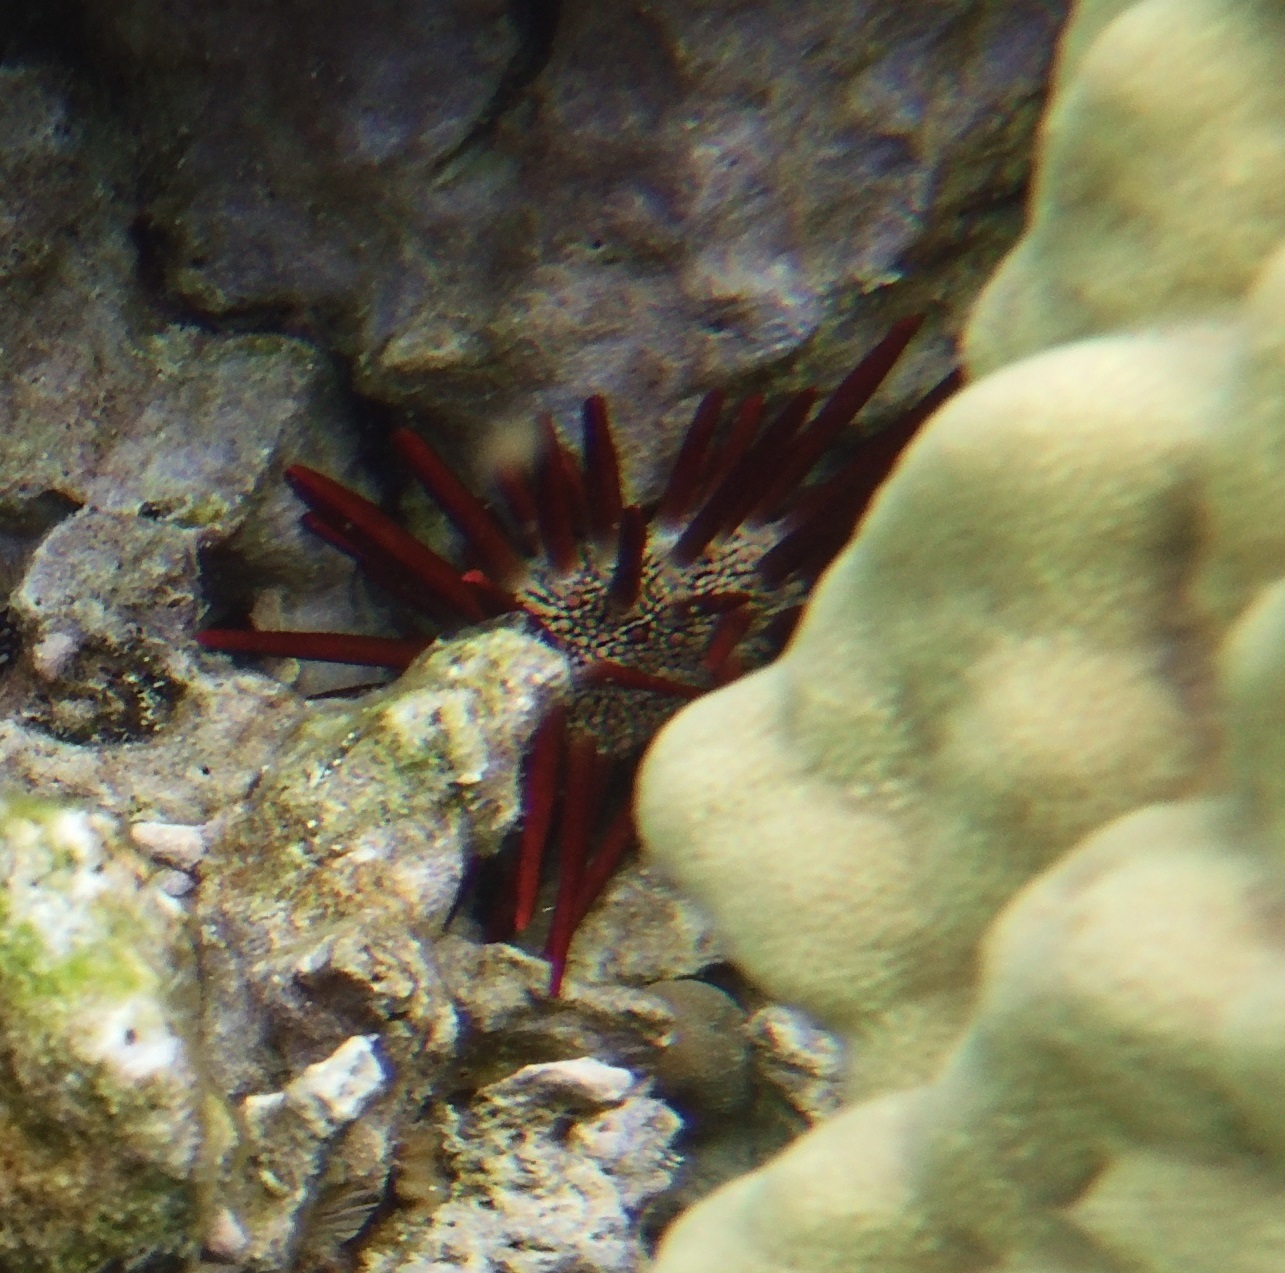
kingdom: Animalia
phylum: Echinodermata
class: Echinoidea
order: Camarodonta
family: Echinometridae
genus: Heterocentrotus
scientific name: Heterocentrotus mamillatus
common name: Slate pencil urchin
